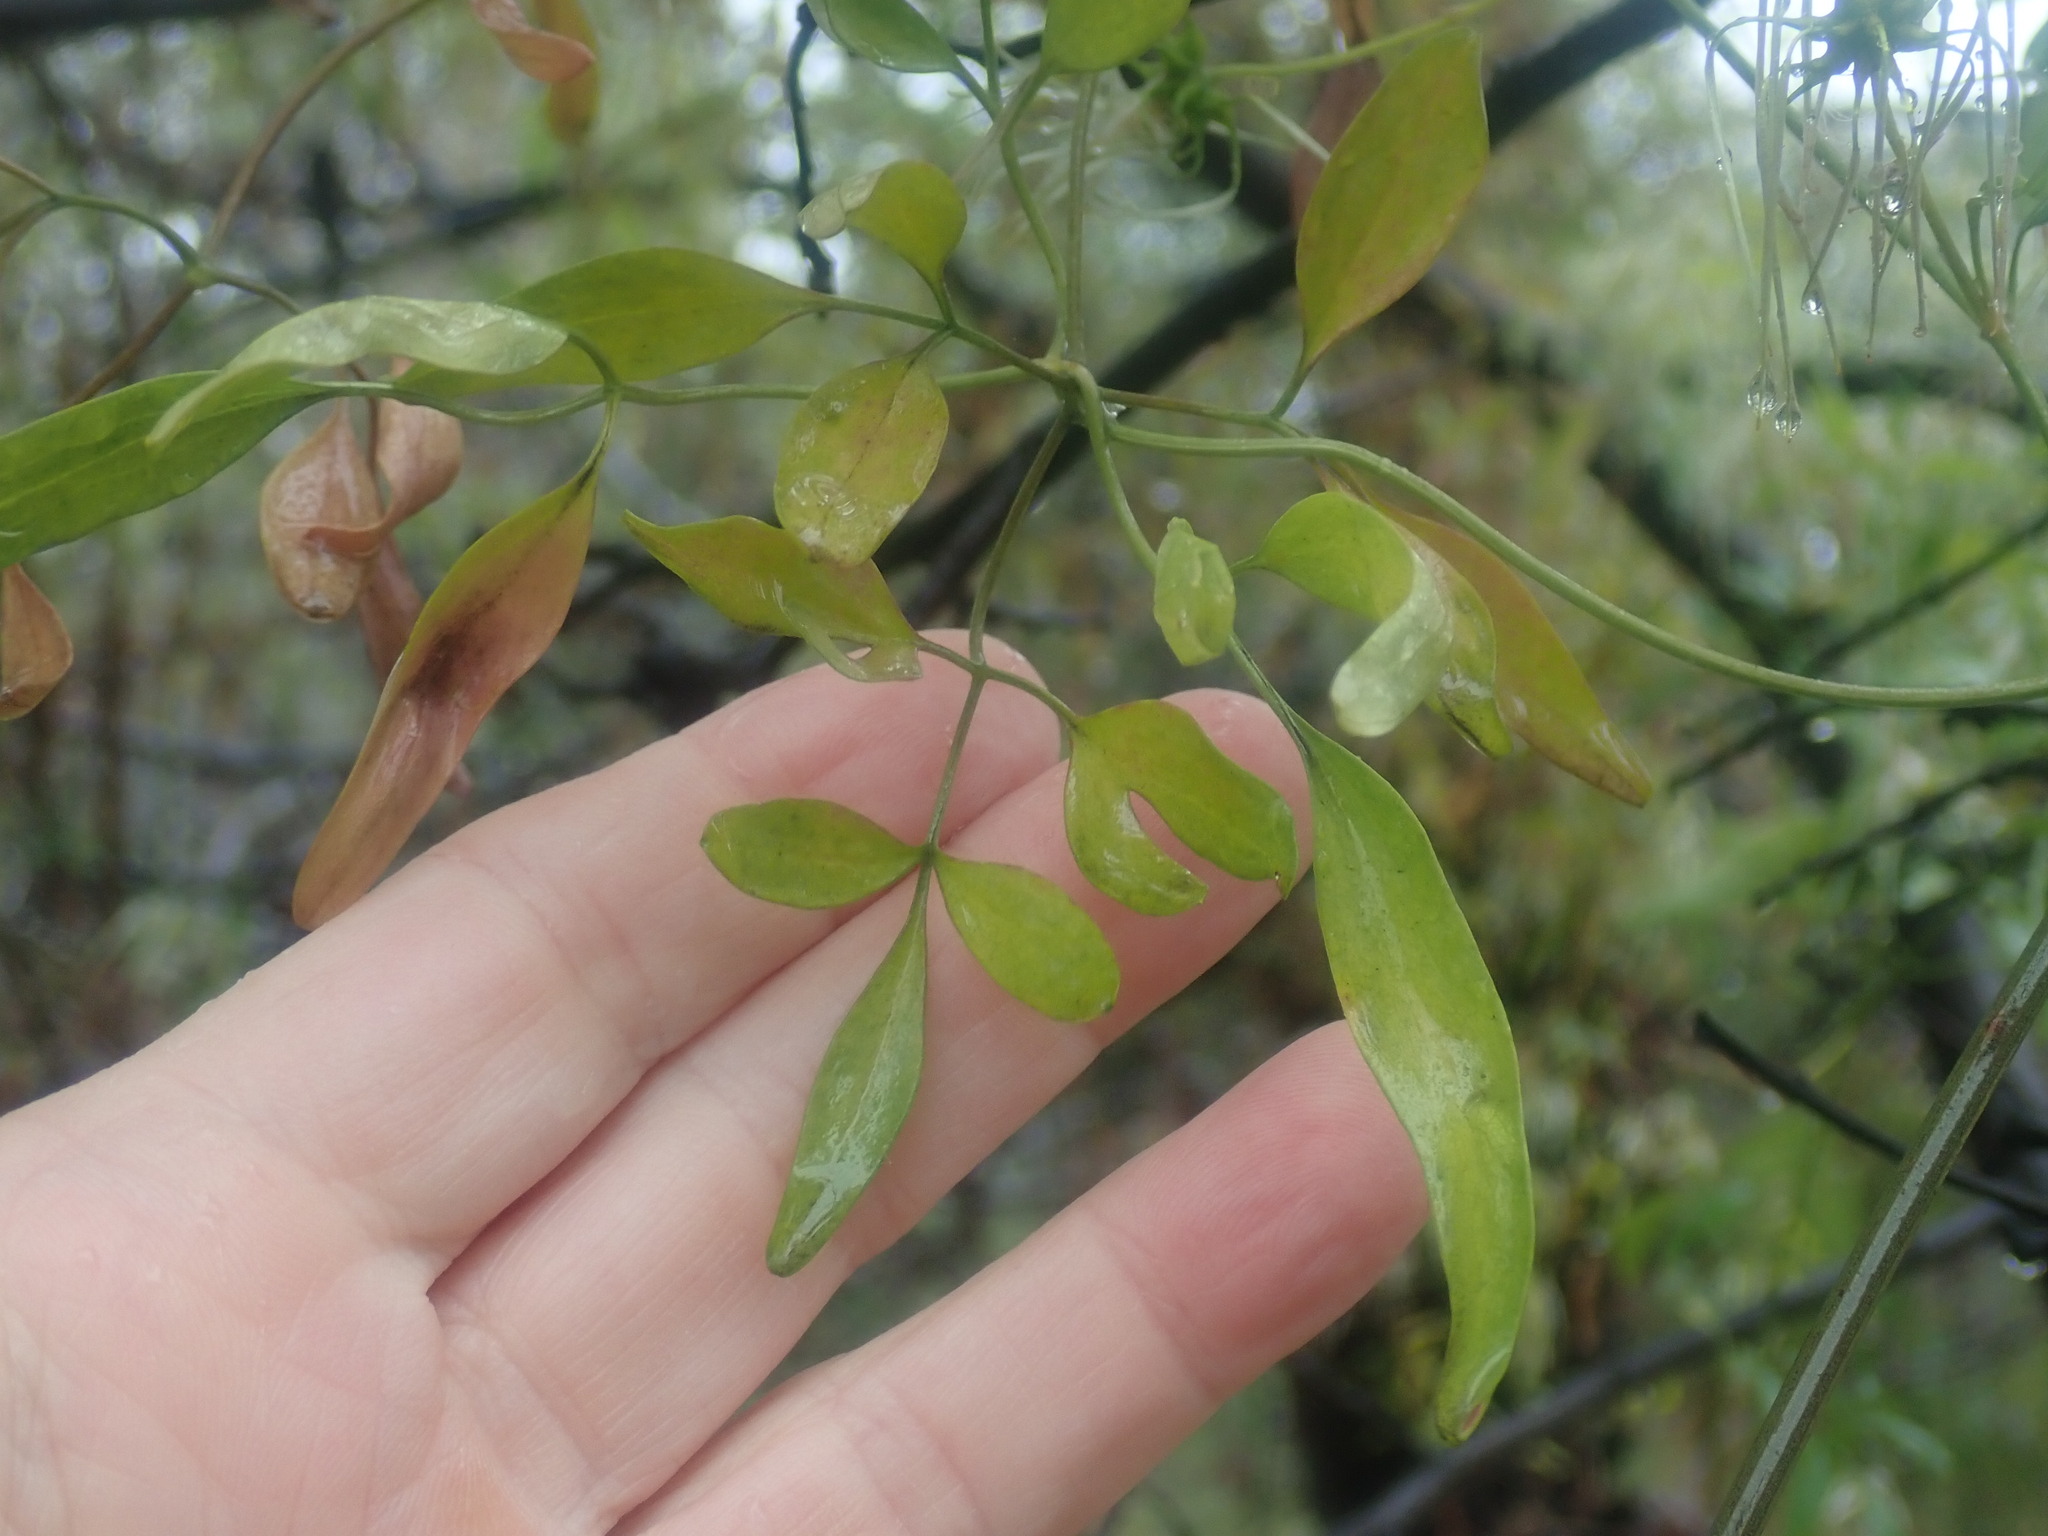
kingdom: Plantae
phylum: Tracheophyta
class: Magnoliopsida
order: Ranunculales
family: Ranunculaceae
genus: Clematis
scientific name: Clematis microphylla
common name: Headachevine
